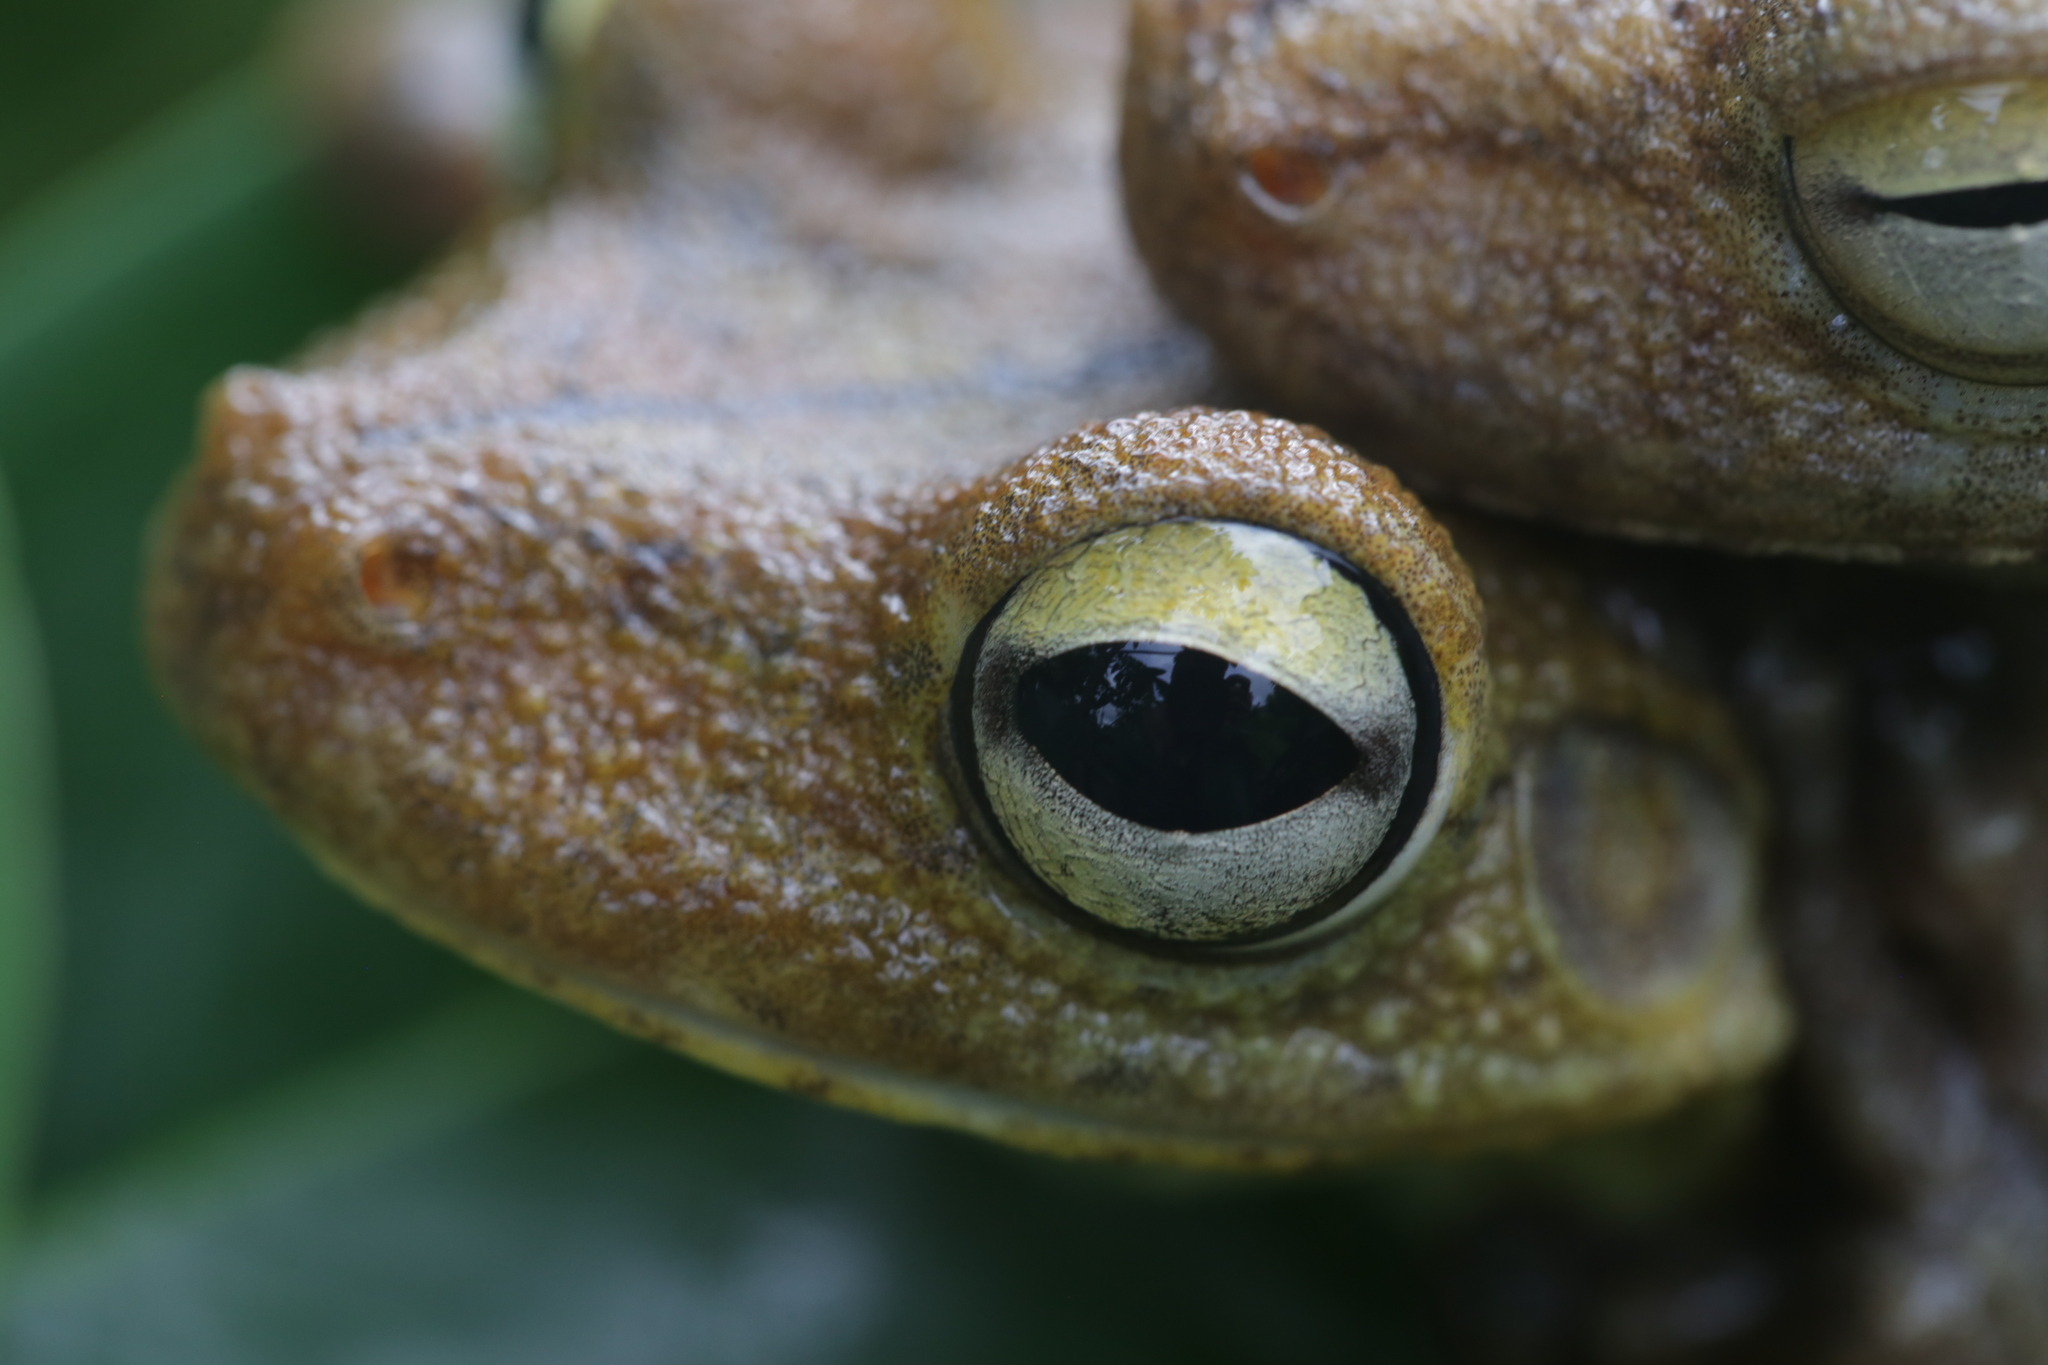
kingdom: Animalia
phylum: Chordata
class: Amphibia
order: Anura
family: Hylidae
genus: Boana
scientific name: Boana rosenbergi
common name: Rosenberg´s gladiator treefrog
